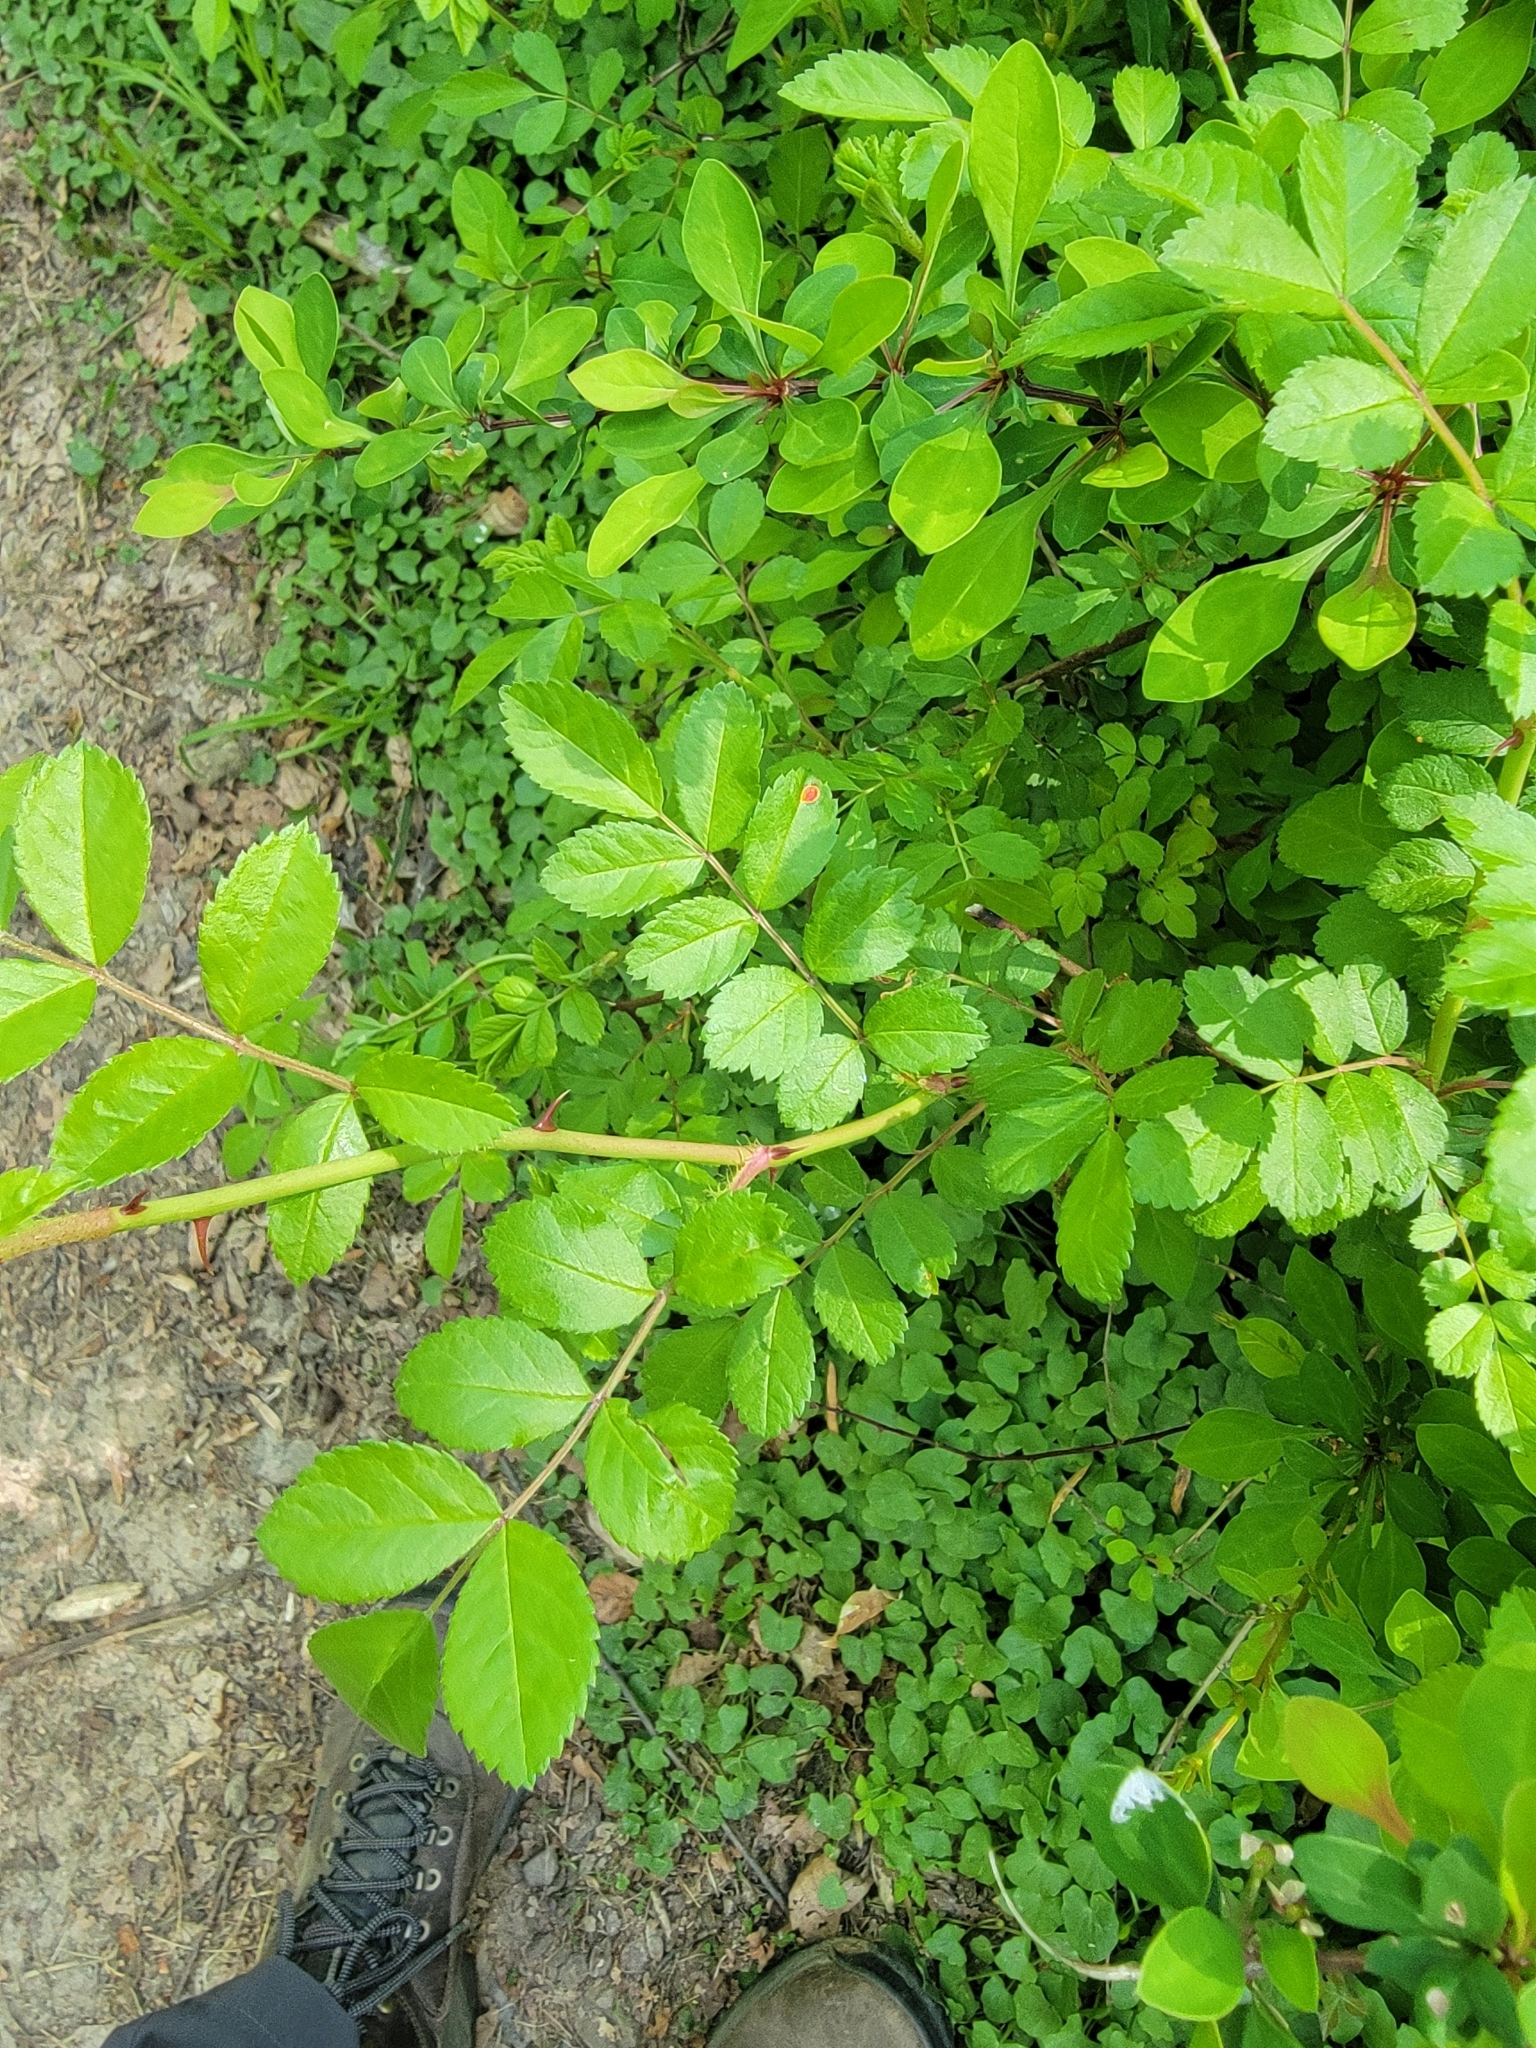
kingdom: Plantae
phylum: Tracheophyta
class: Magnoliopsida
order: Rosales
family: Rosaceae
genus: Rosa
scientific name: Rosa multiflora
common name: Multiflora rose
